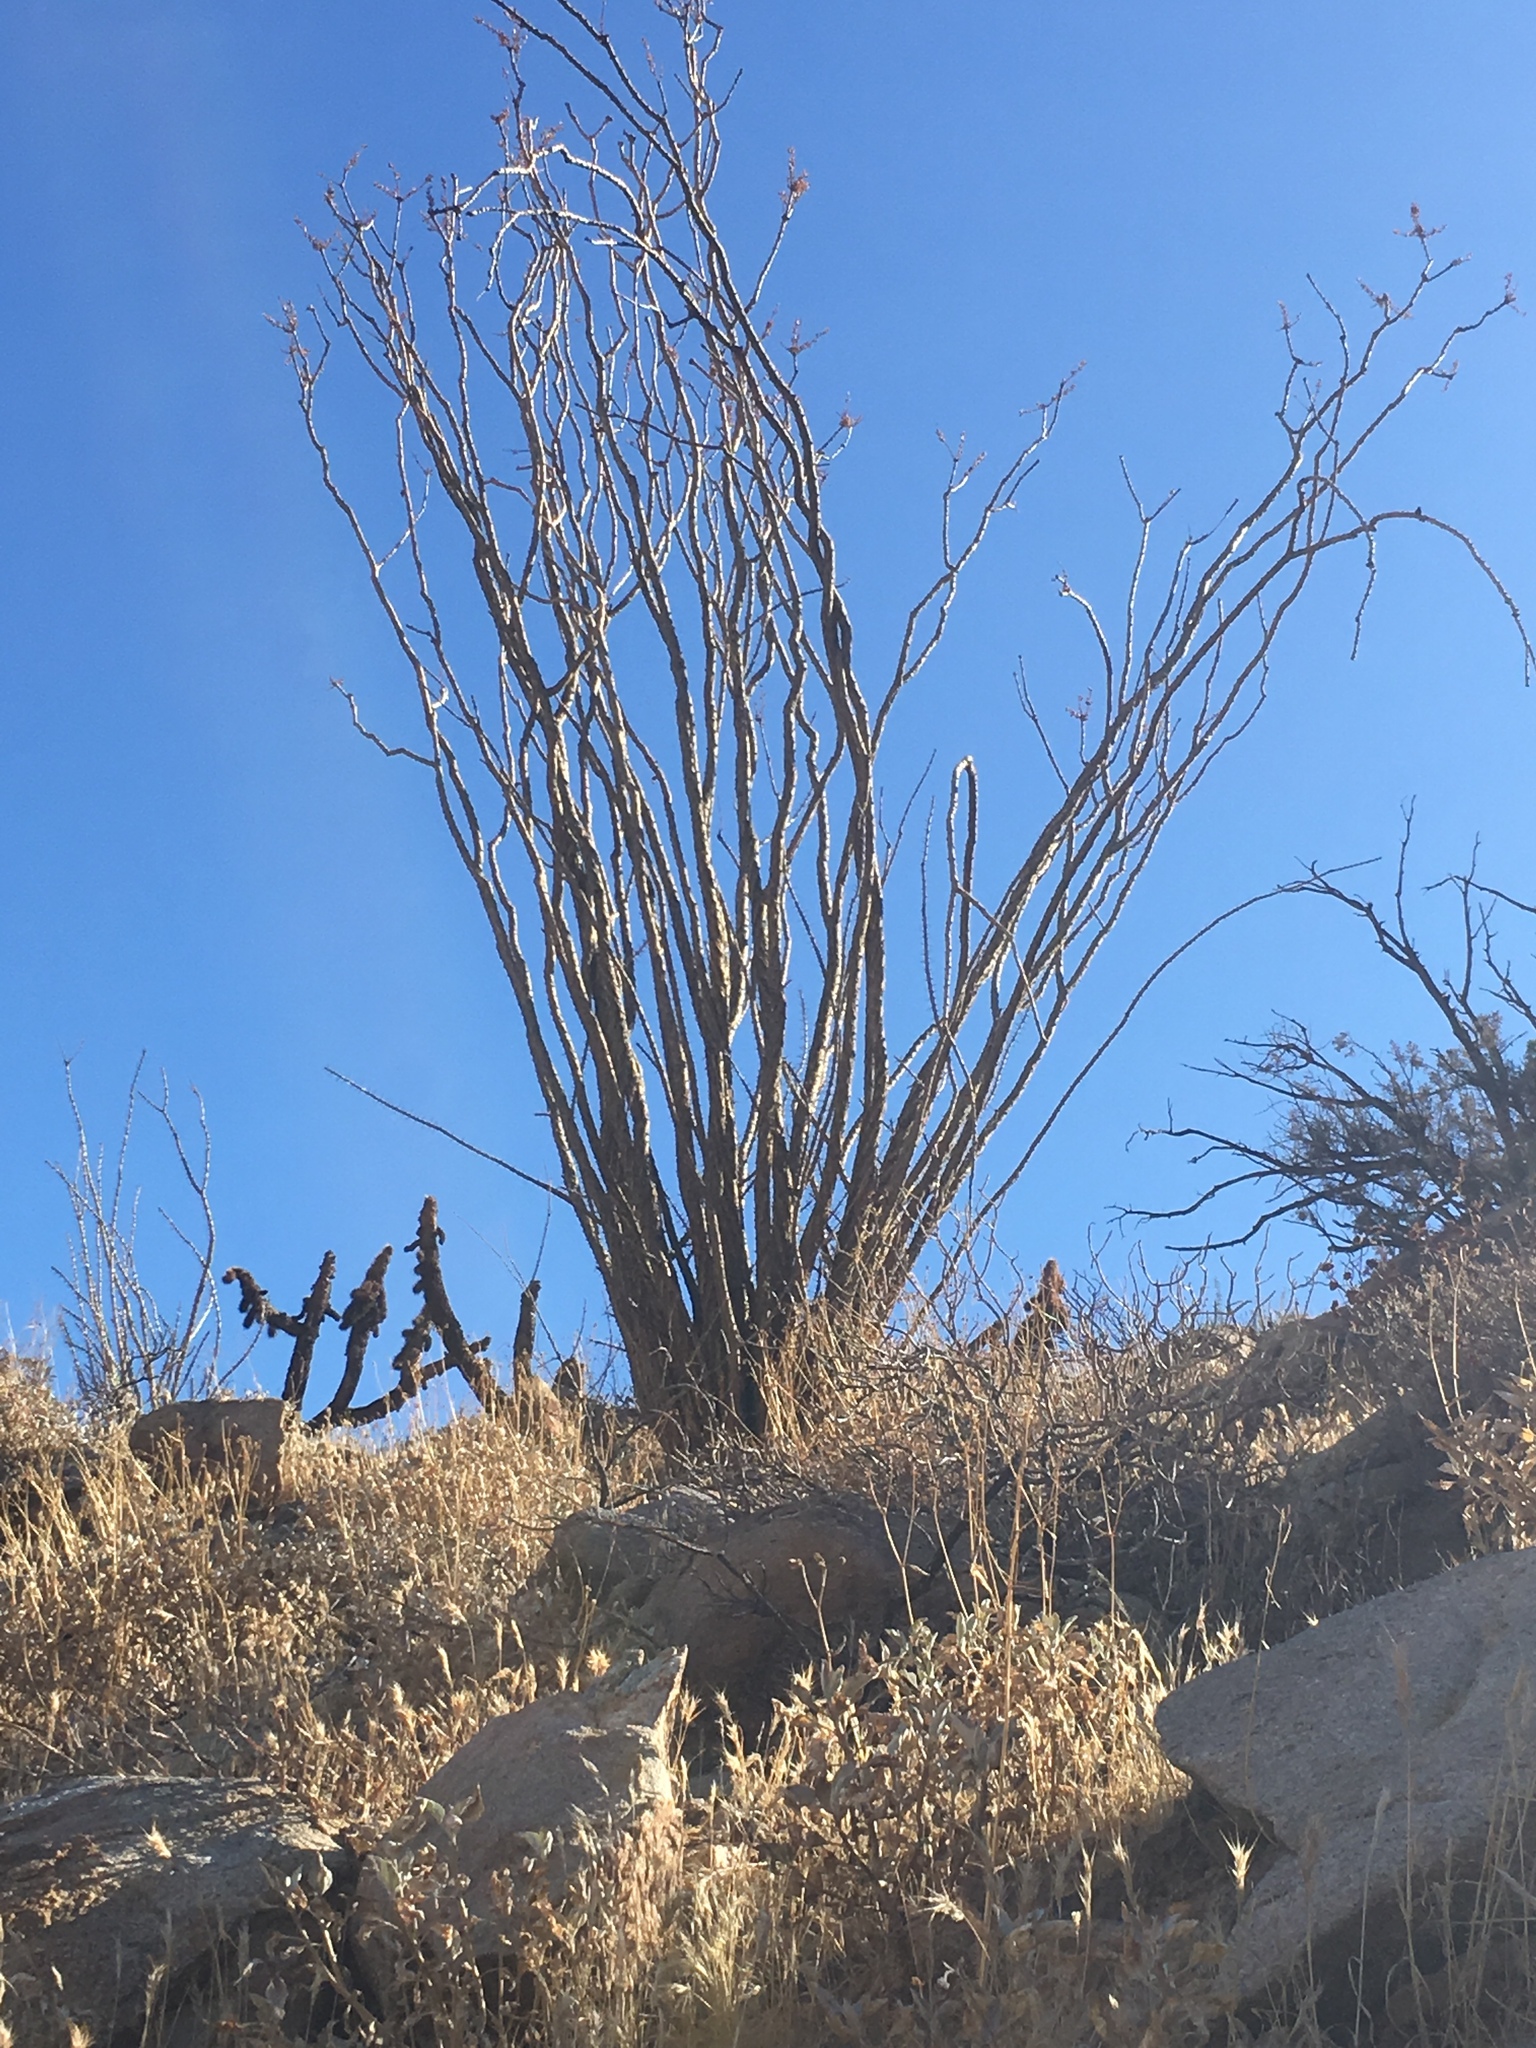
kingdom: Plantae
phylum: Tracheophyta
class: Magnoliopsida
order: Ericales
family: Fouquieriaceae
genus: Fouquieria
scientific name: Fouquieria splendens
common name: Vine-cactus
